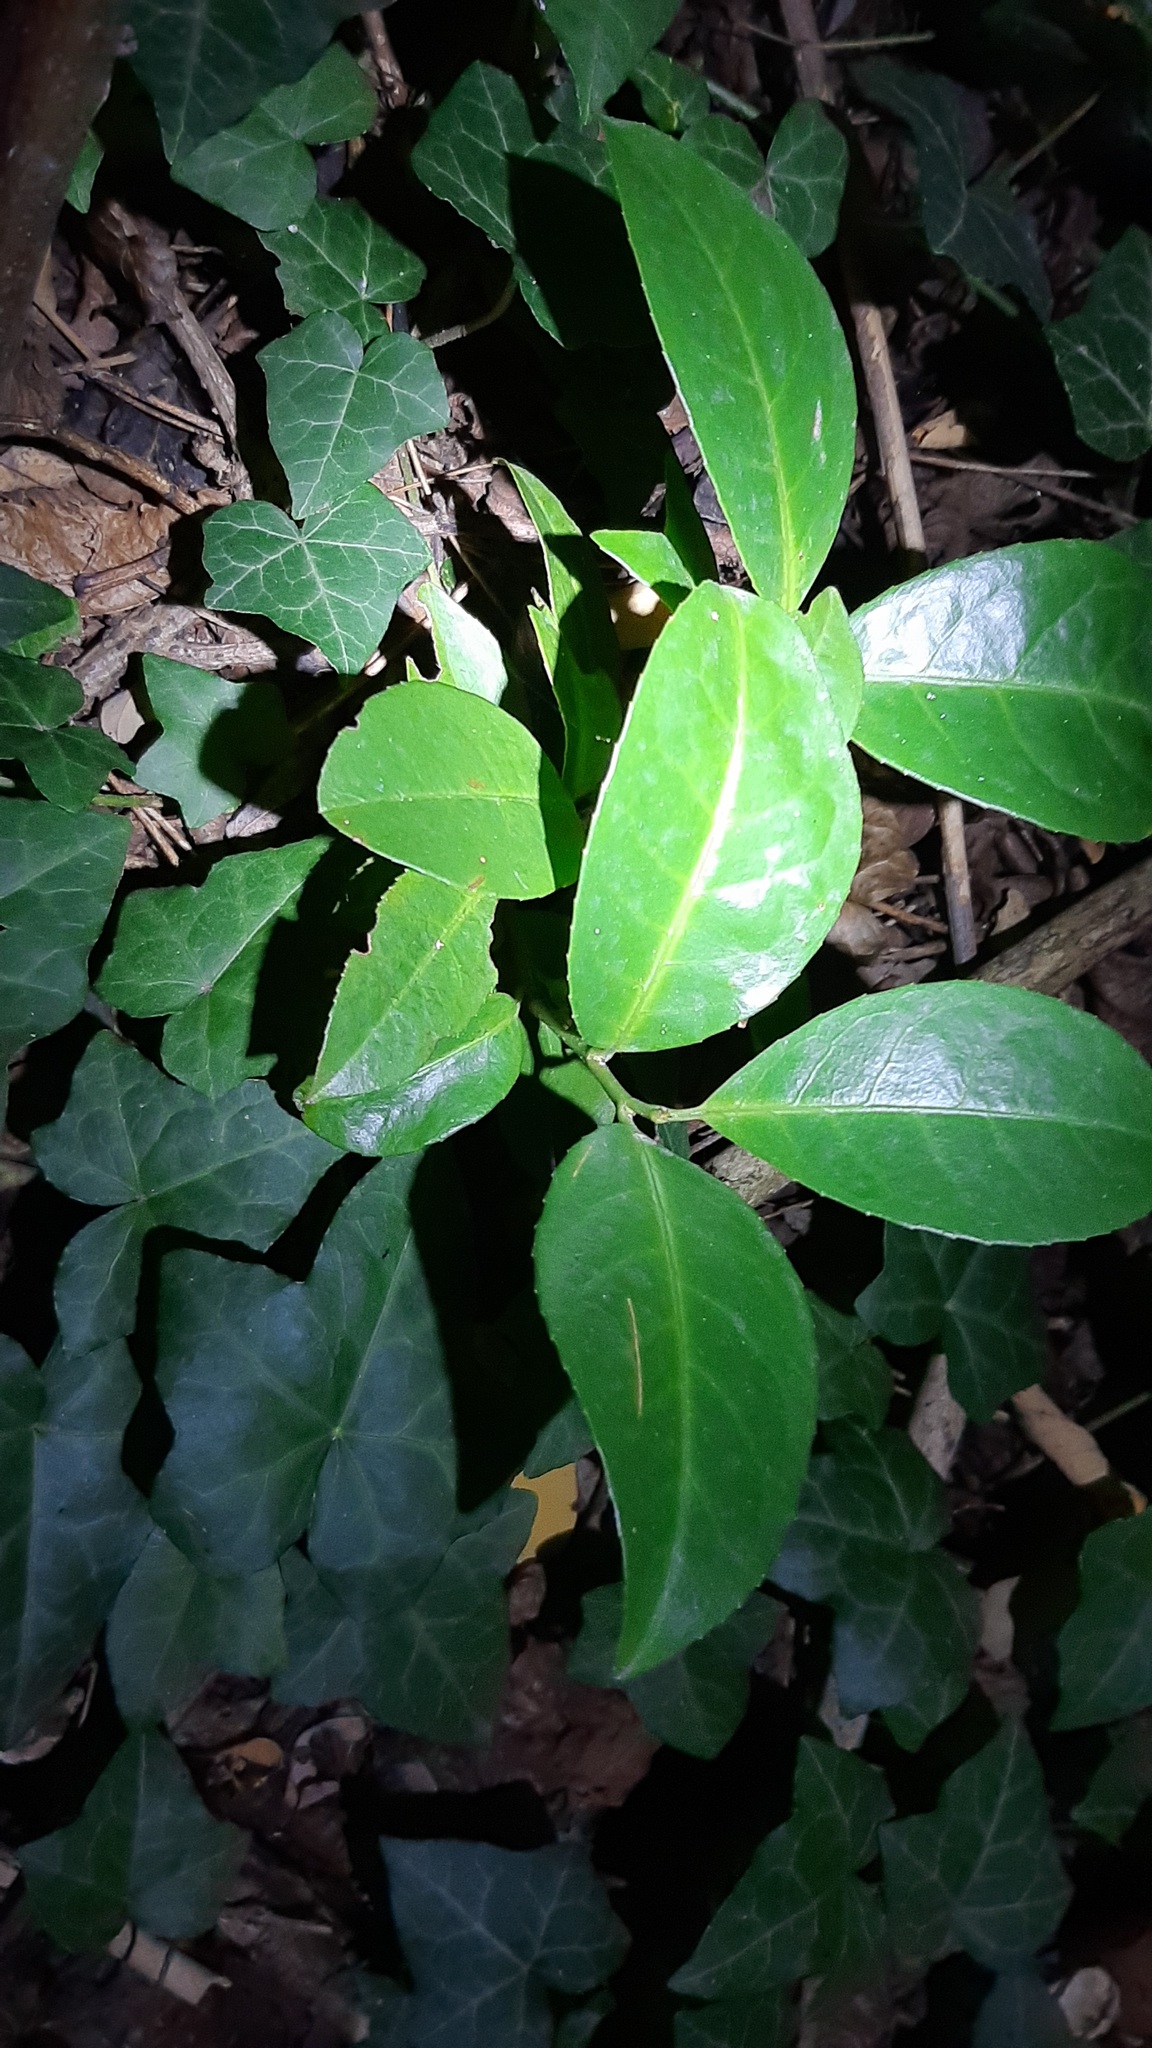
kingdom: Plantae
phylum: Tracheophyta
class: Magnoliopsida
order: Rosales
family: Rosaceae
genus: Prunus
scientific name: Prunus laurocerasus
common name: Cherry laurel
